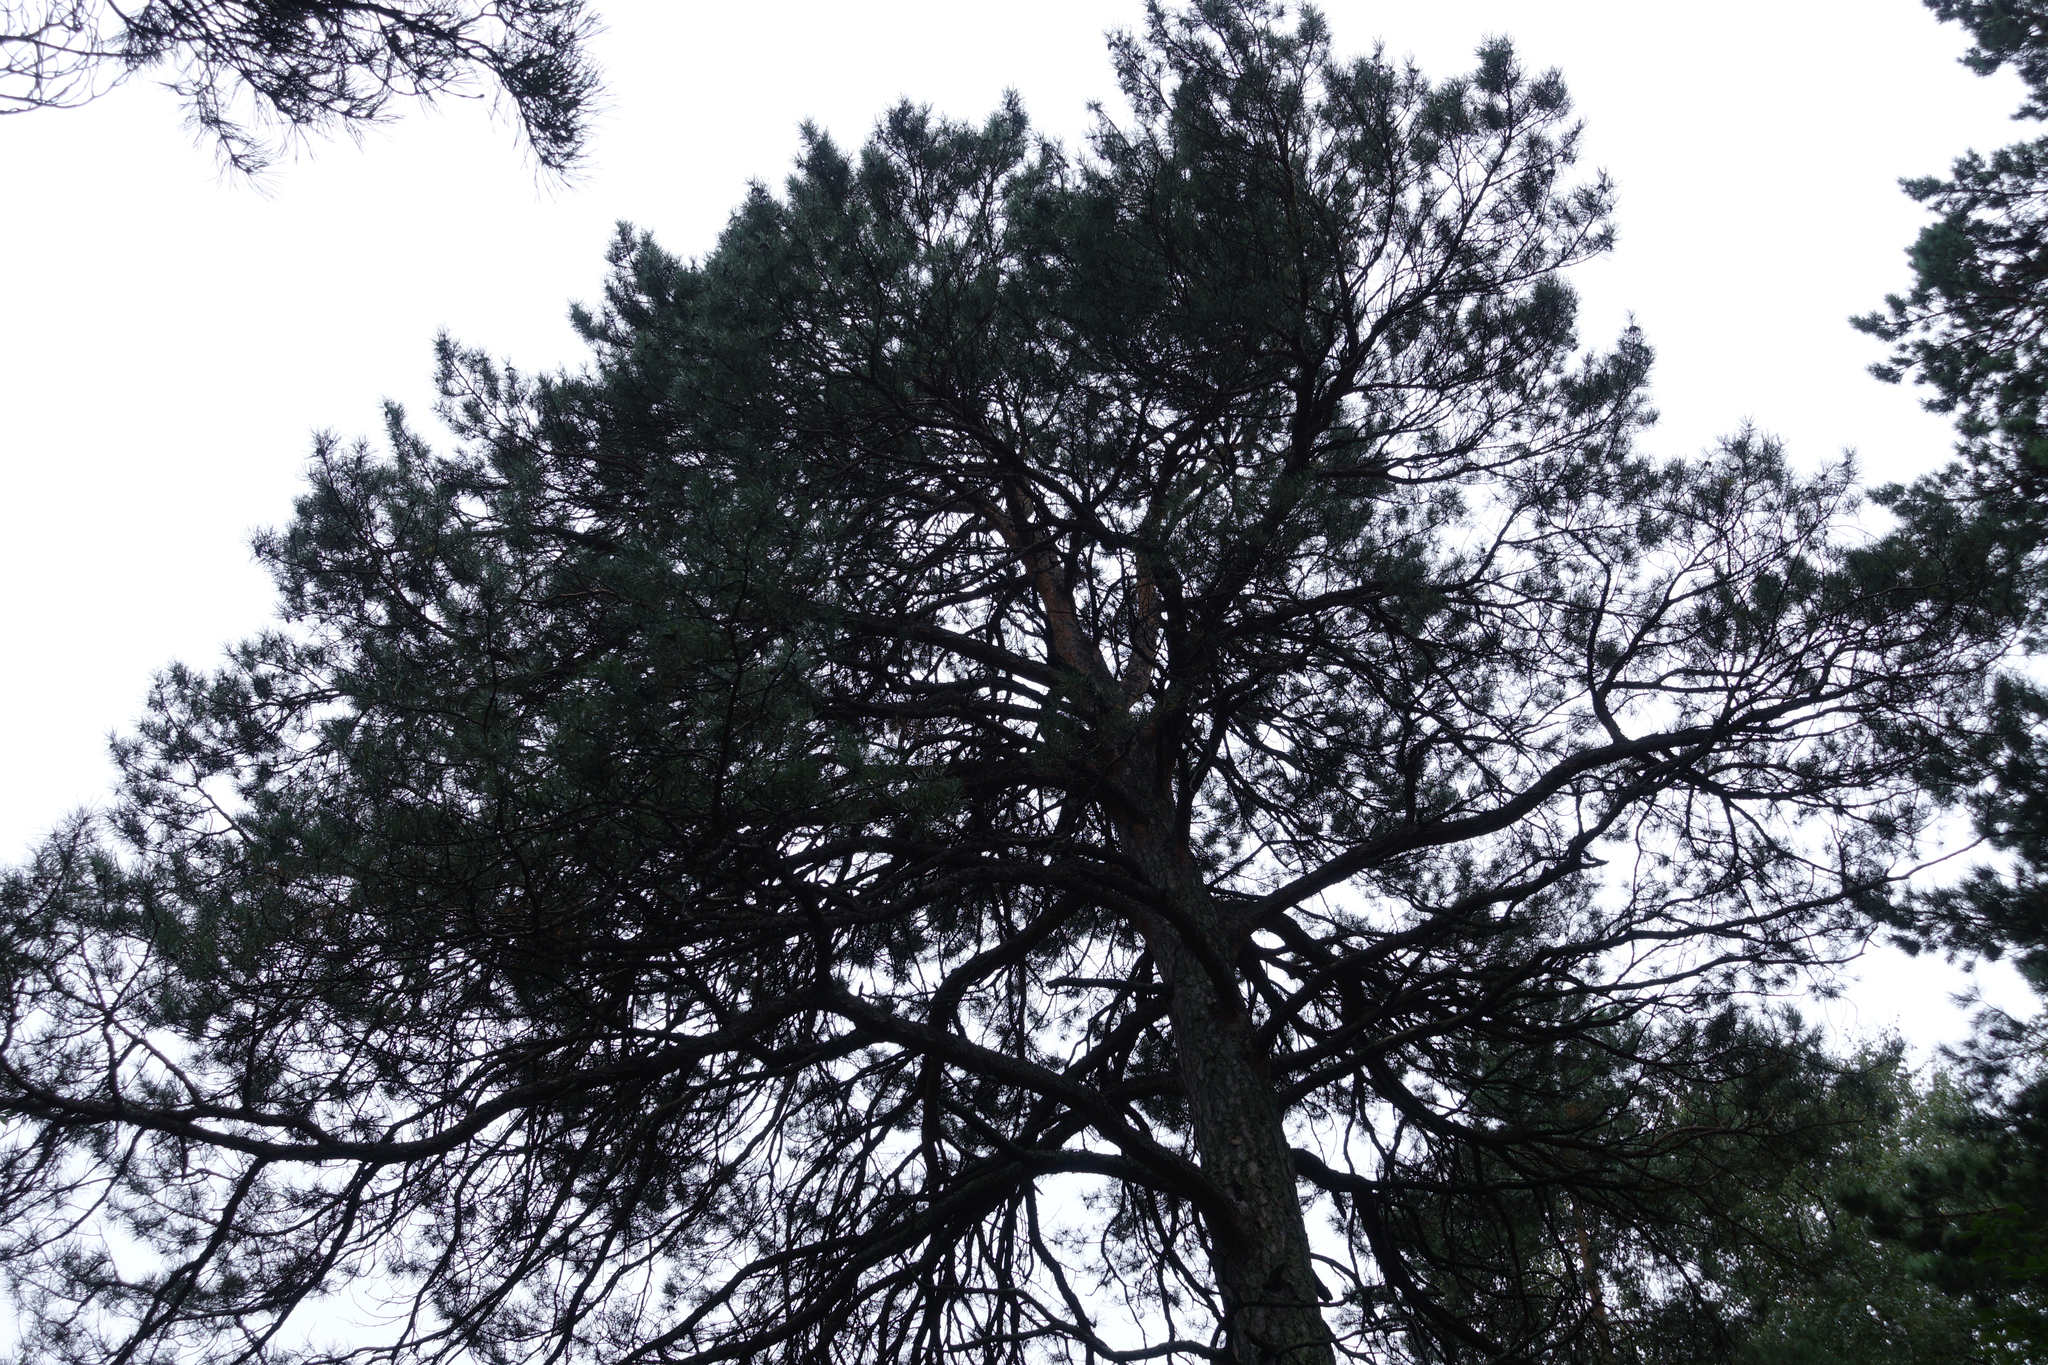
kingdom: Plantae
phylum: Tracheophyta
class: Pinopsida
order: Pinales
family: Pinaceae
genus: Pinus
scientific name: Pinus sylvestris
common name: Scots pine
